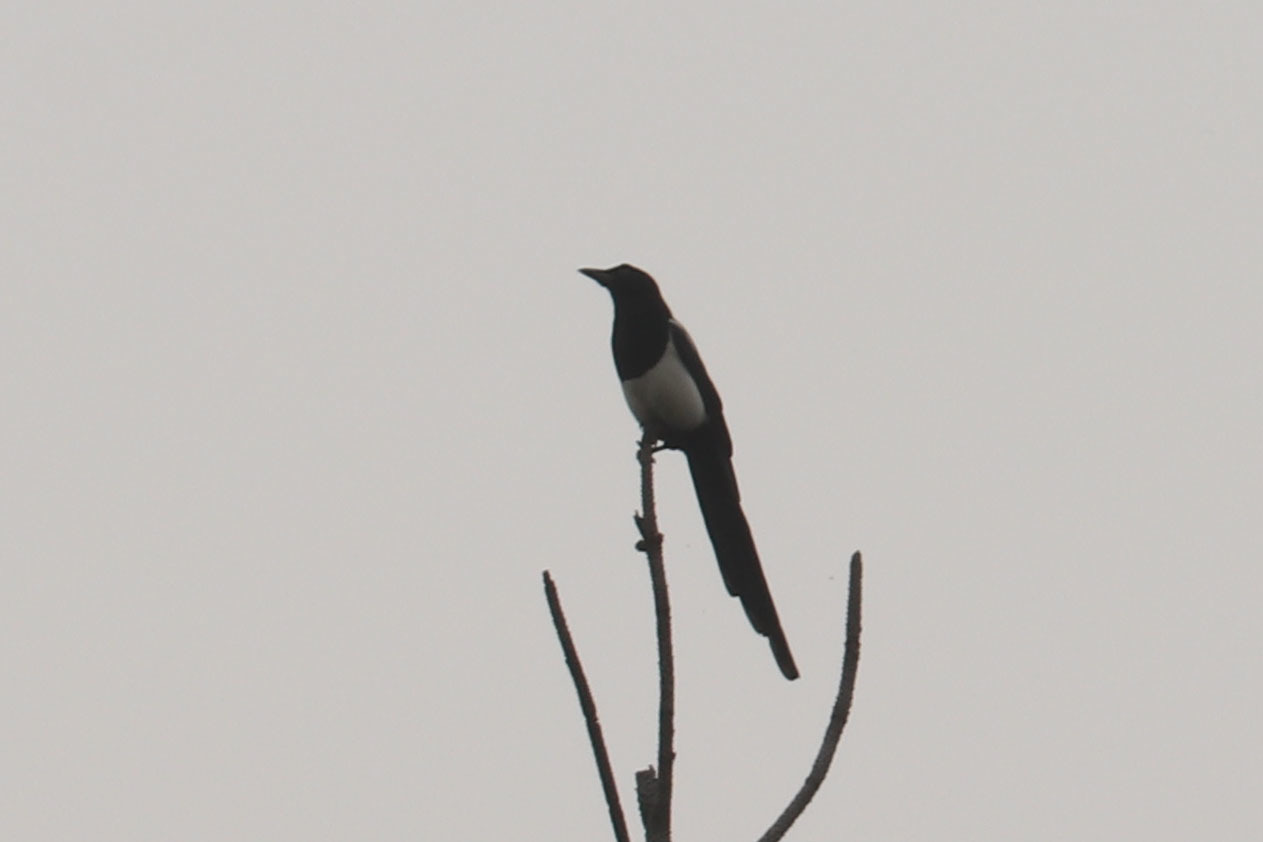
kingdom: Animalia
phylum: Chordata
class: Aves
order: Passeriformes
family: Corvidae
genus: Pica
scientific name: Pica hudsonia
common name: Black-billed magpie
